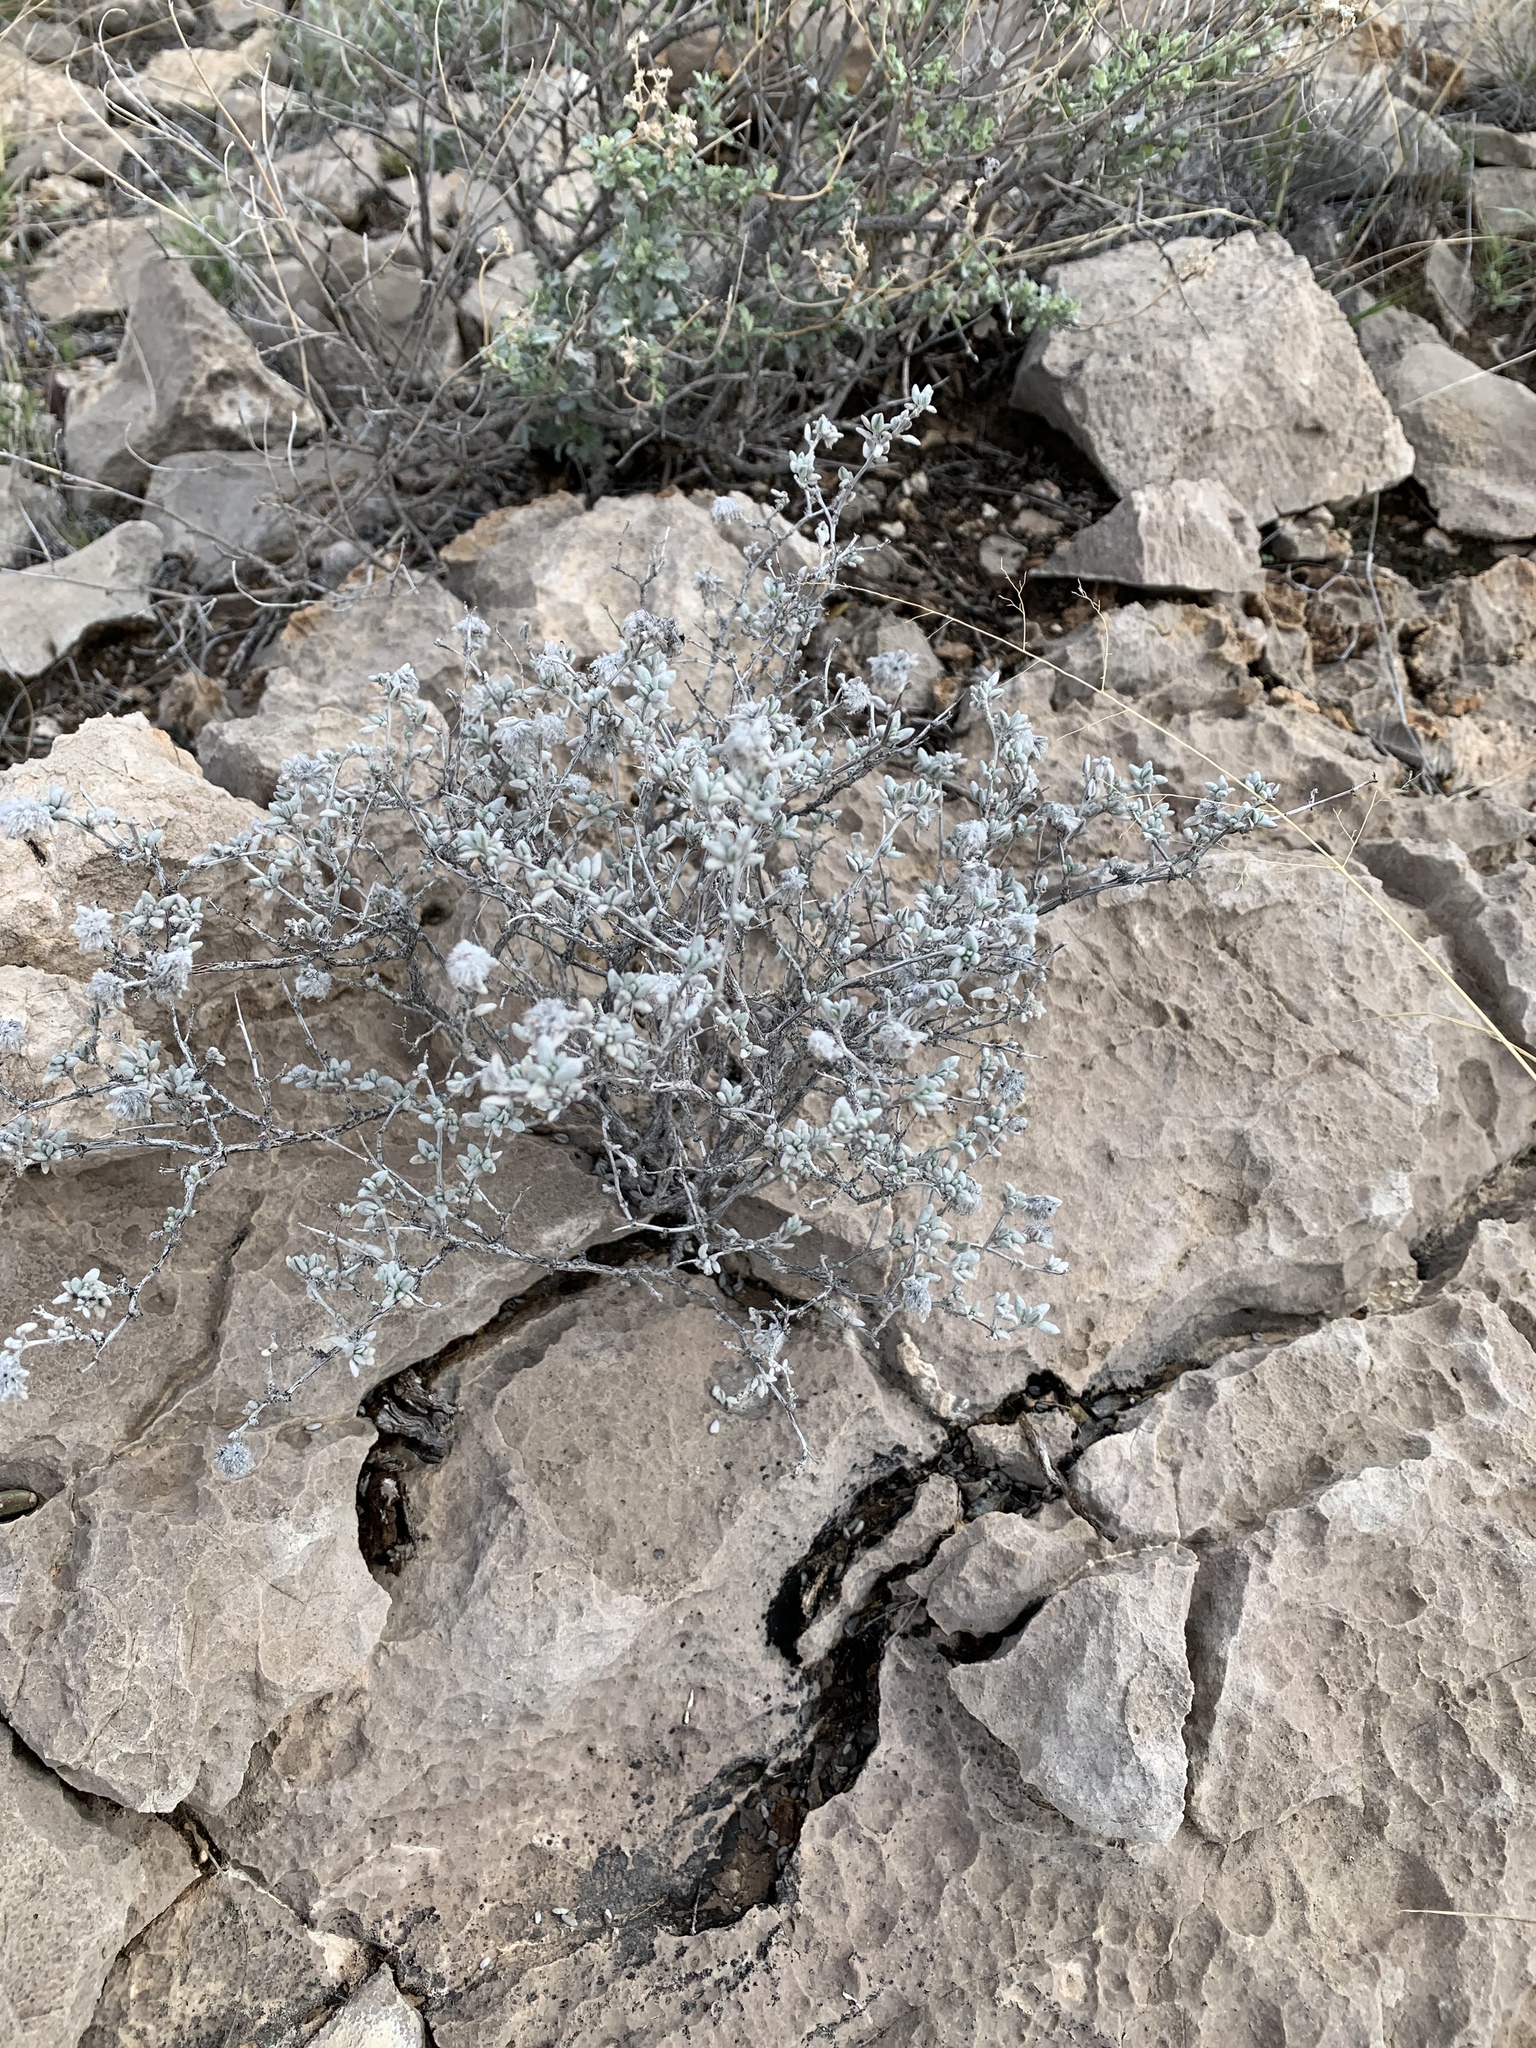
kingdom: Plantae
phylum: Tracheophyta
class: Magnoliopsida
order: Boraginales
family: Ehretiaceae
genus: Tiquilia
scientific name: Tiquilia greggii
